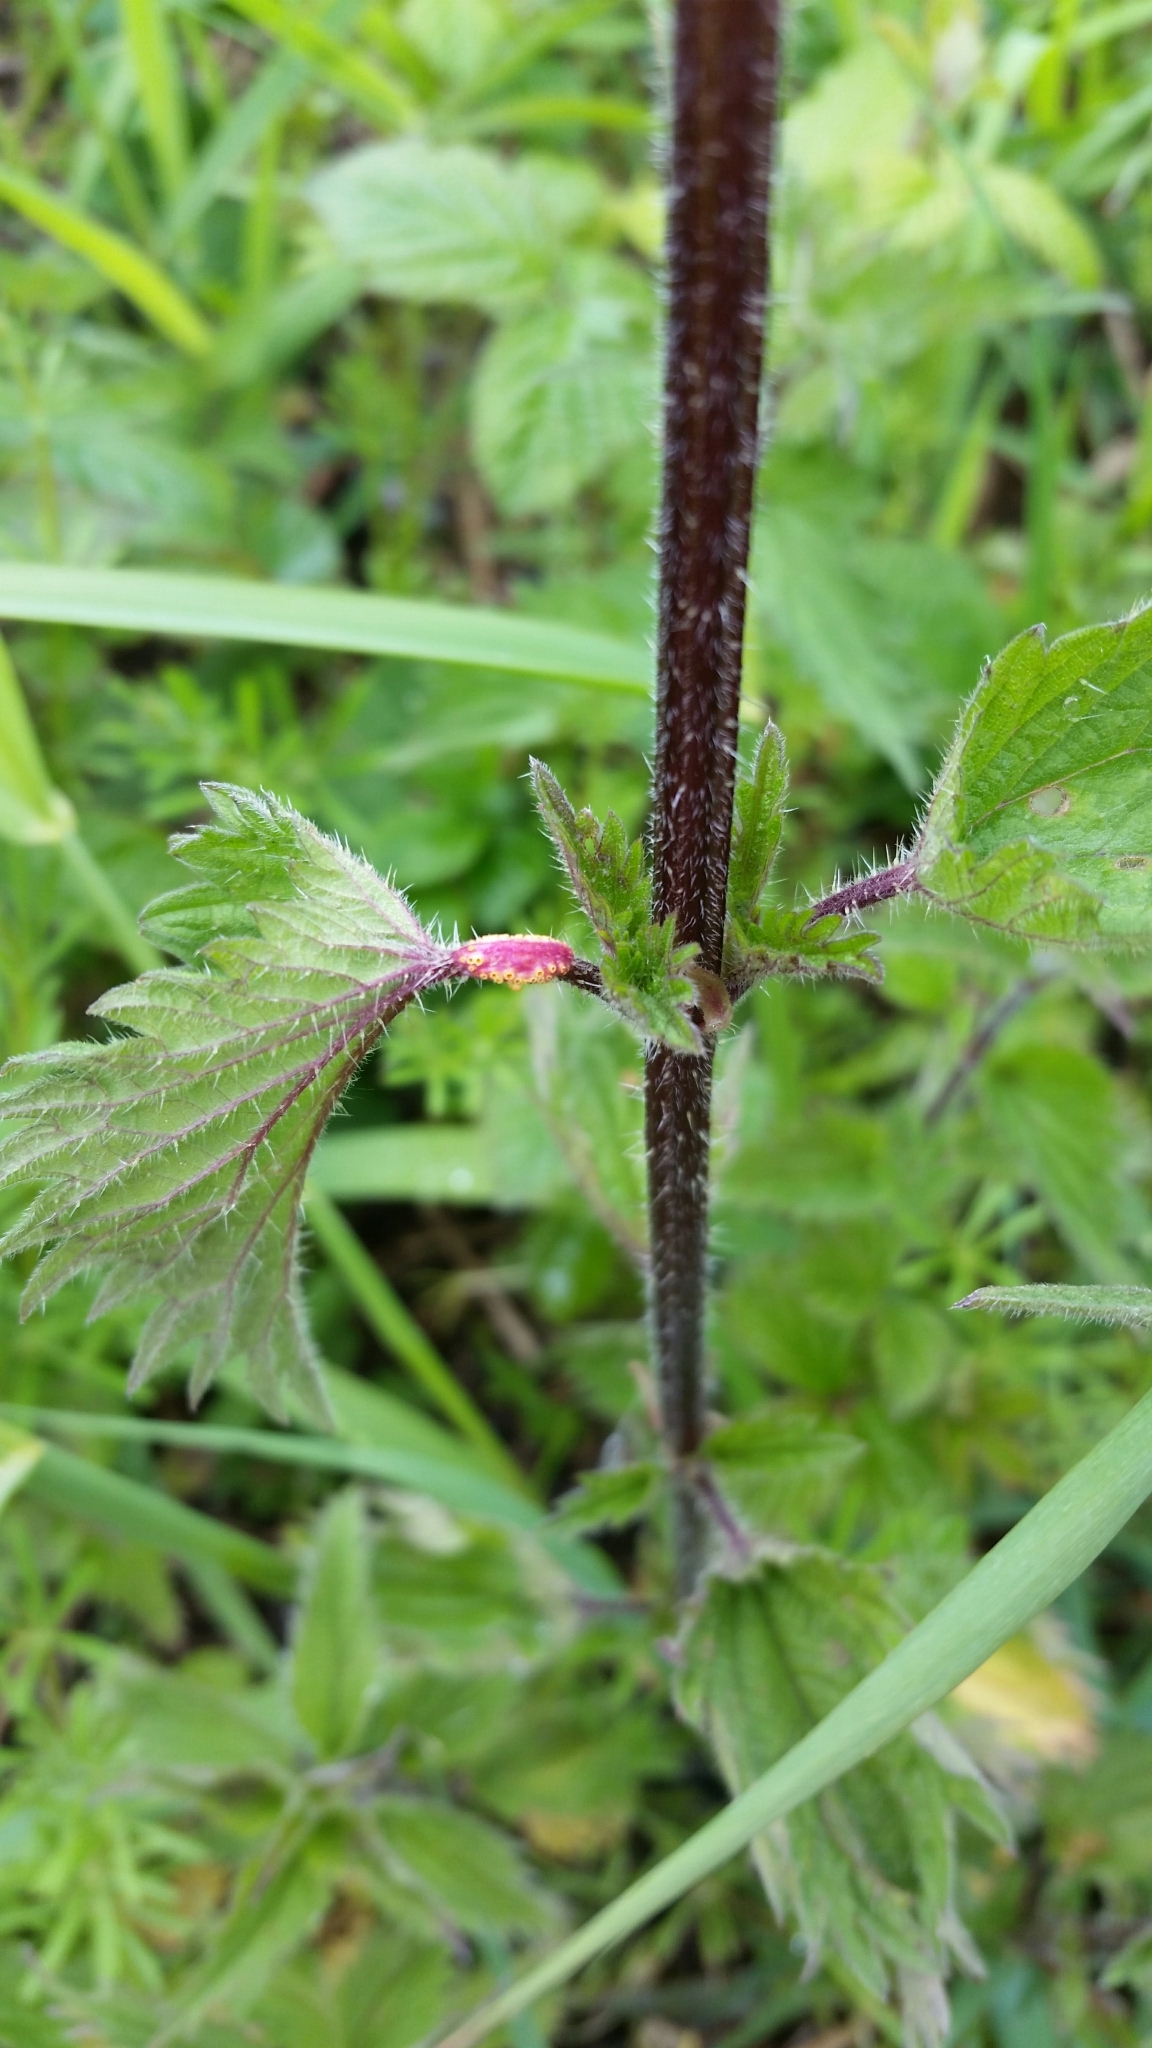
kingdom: Fungi
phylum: Basidiomycota
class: Pucciniomycetes
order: Pucciniales
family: Pucciniaceae
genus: Puccinia
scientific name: Puccinia urticata
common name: Nettle clustercup rust fungus
